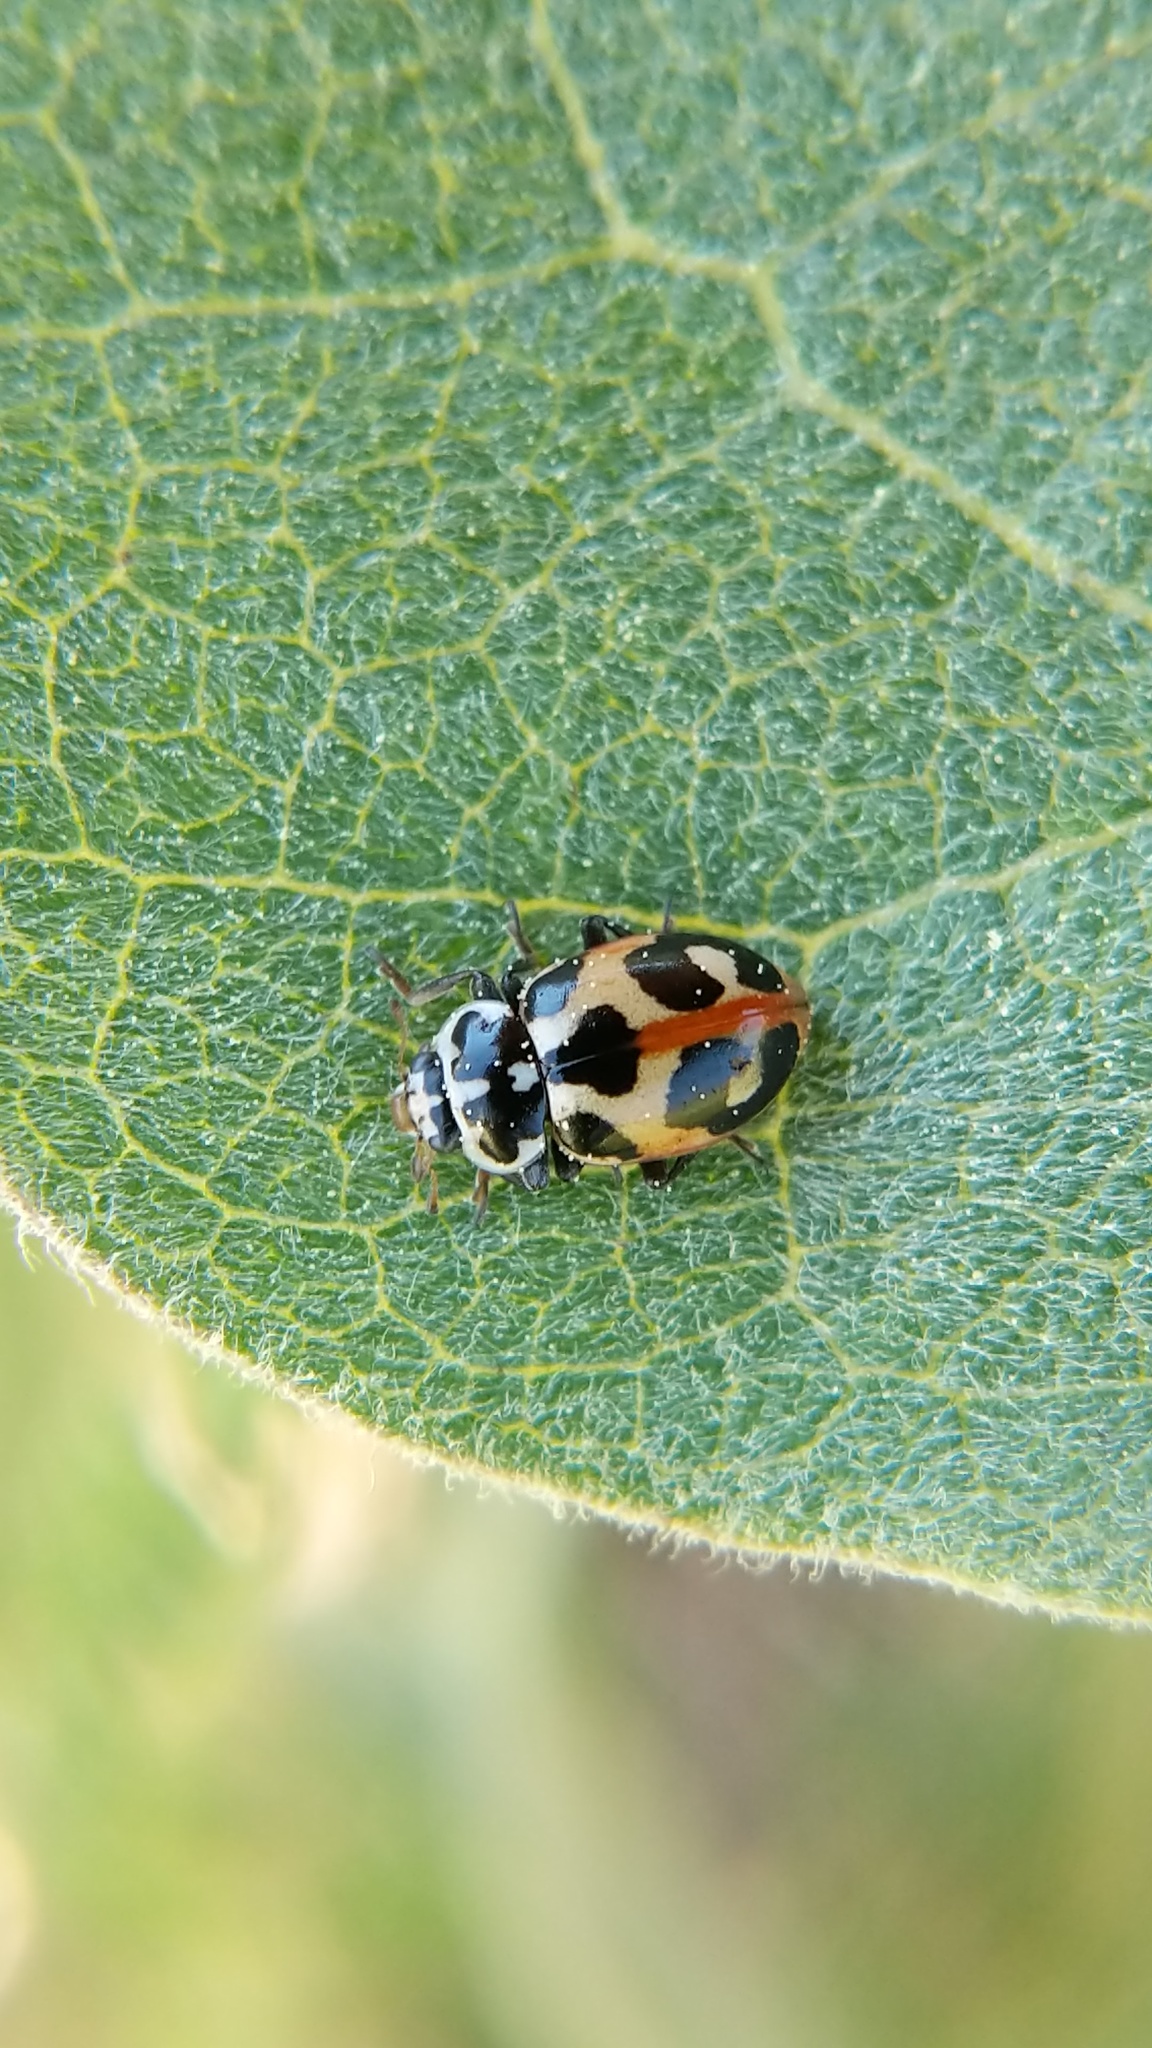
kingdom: Animalia
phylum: Arthropoda
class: Insecta
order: Coleoptera
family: Coccinellidae
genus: Hippodamia
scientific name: Hippodamia parenthesis
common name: Parenthesis lady beetle
